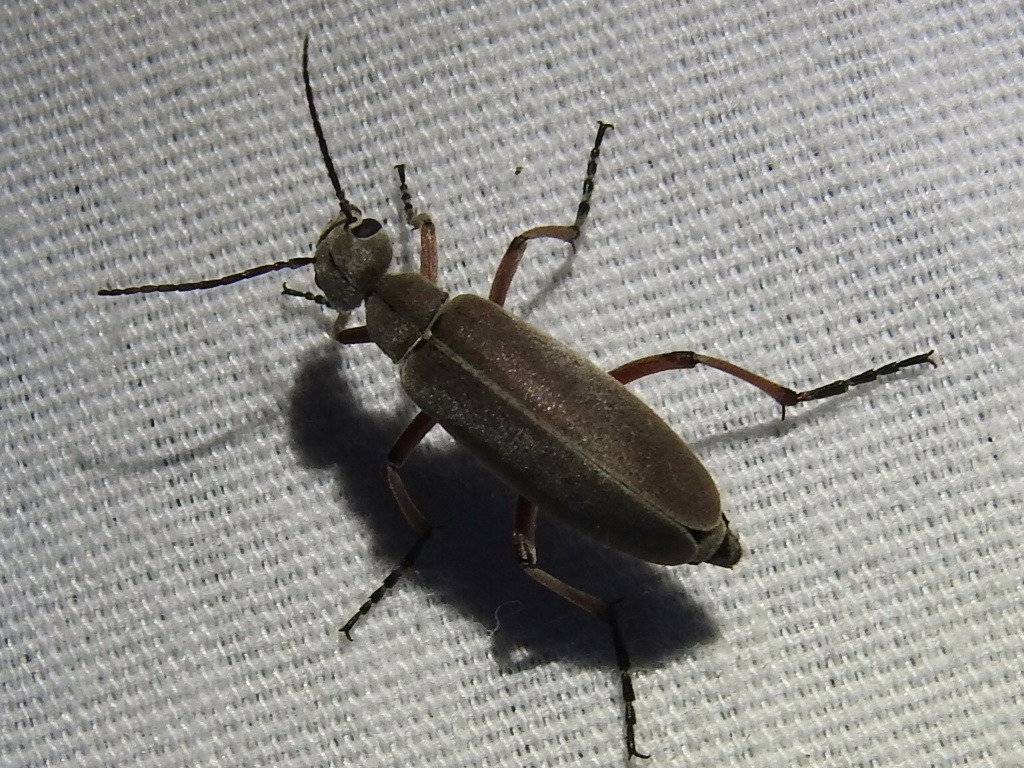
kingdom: Animalia
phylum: Arthropoda
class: Insecta
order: Coleoptera
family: Meloidae
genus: Epicauta
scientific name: Epicauta nigritarsis
